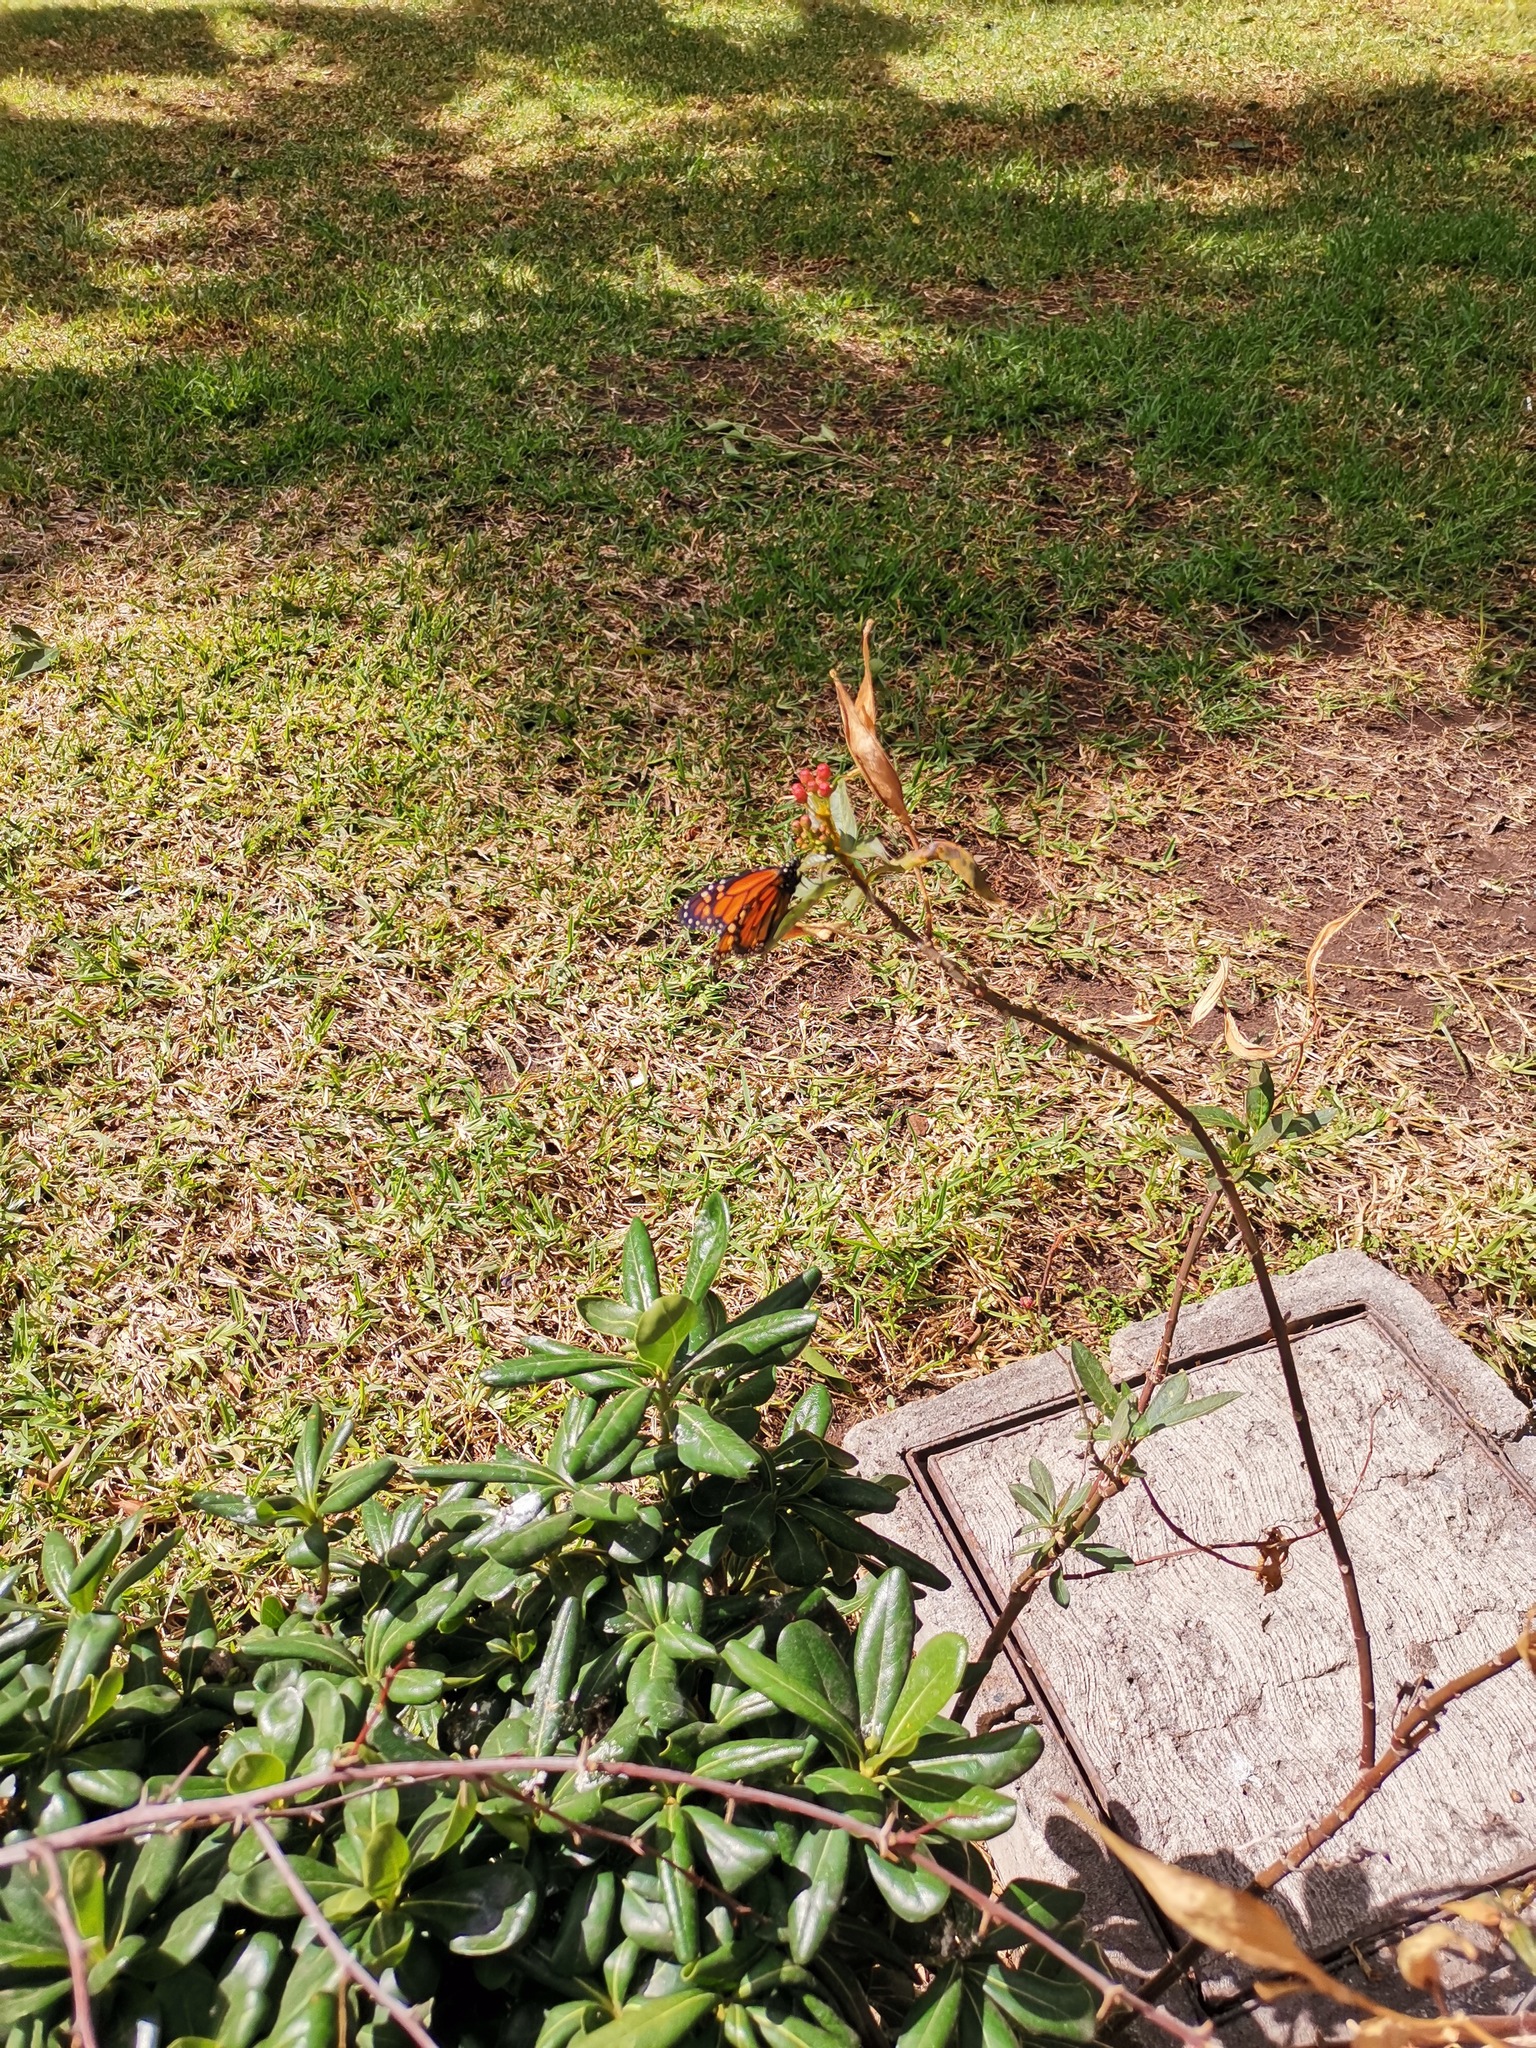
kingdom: Animalia
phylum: Arthropoda
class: Insecta
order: Lepidoptera
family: Nymphalidae
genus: Danaus
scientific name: Danaus plexippus
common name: Monarch
